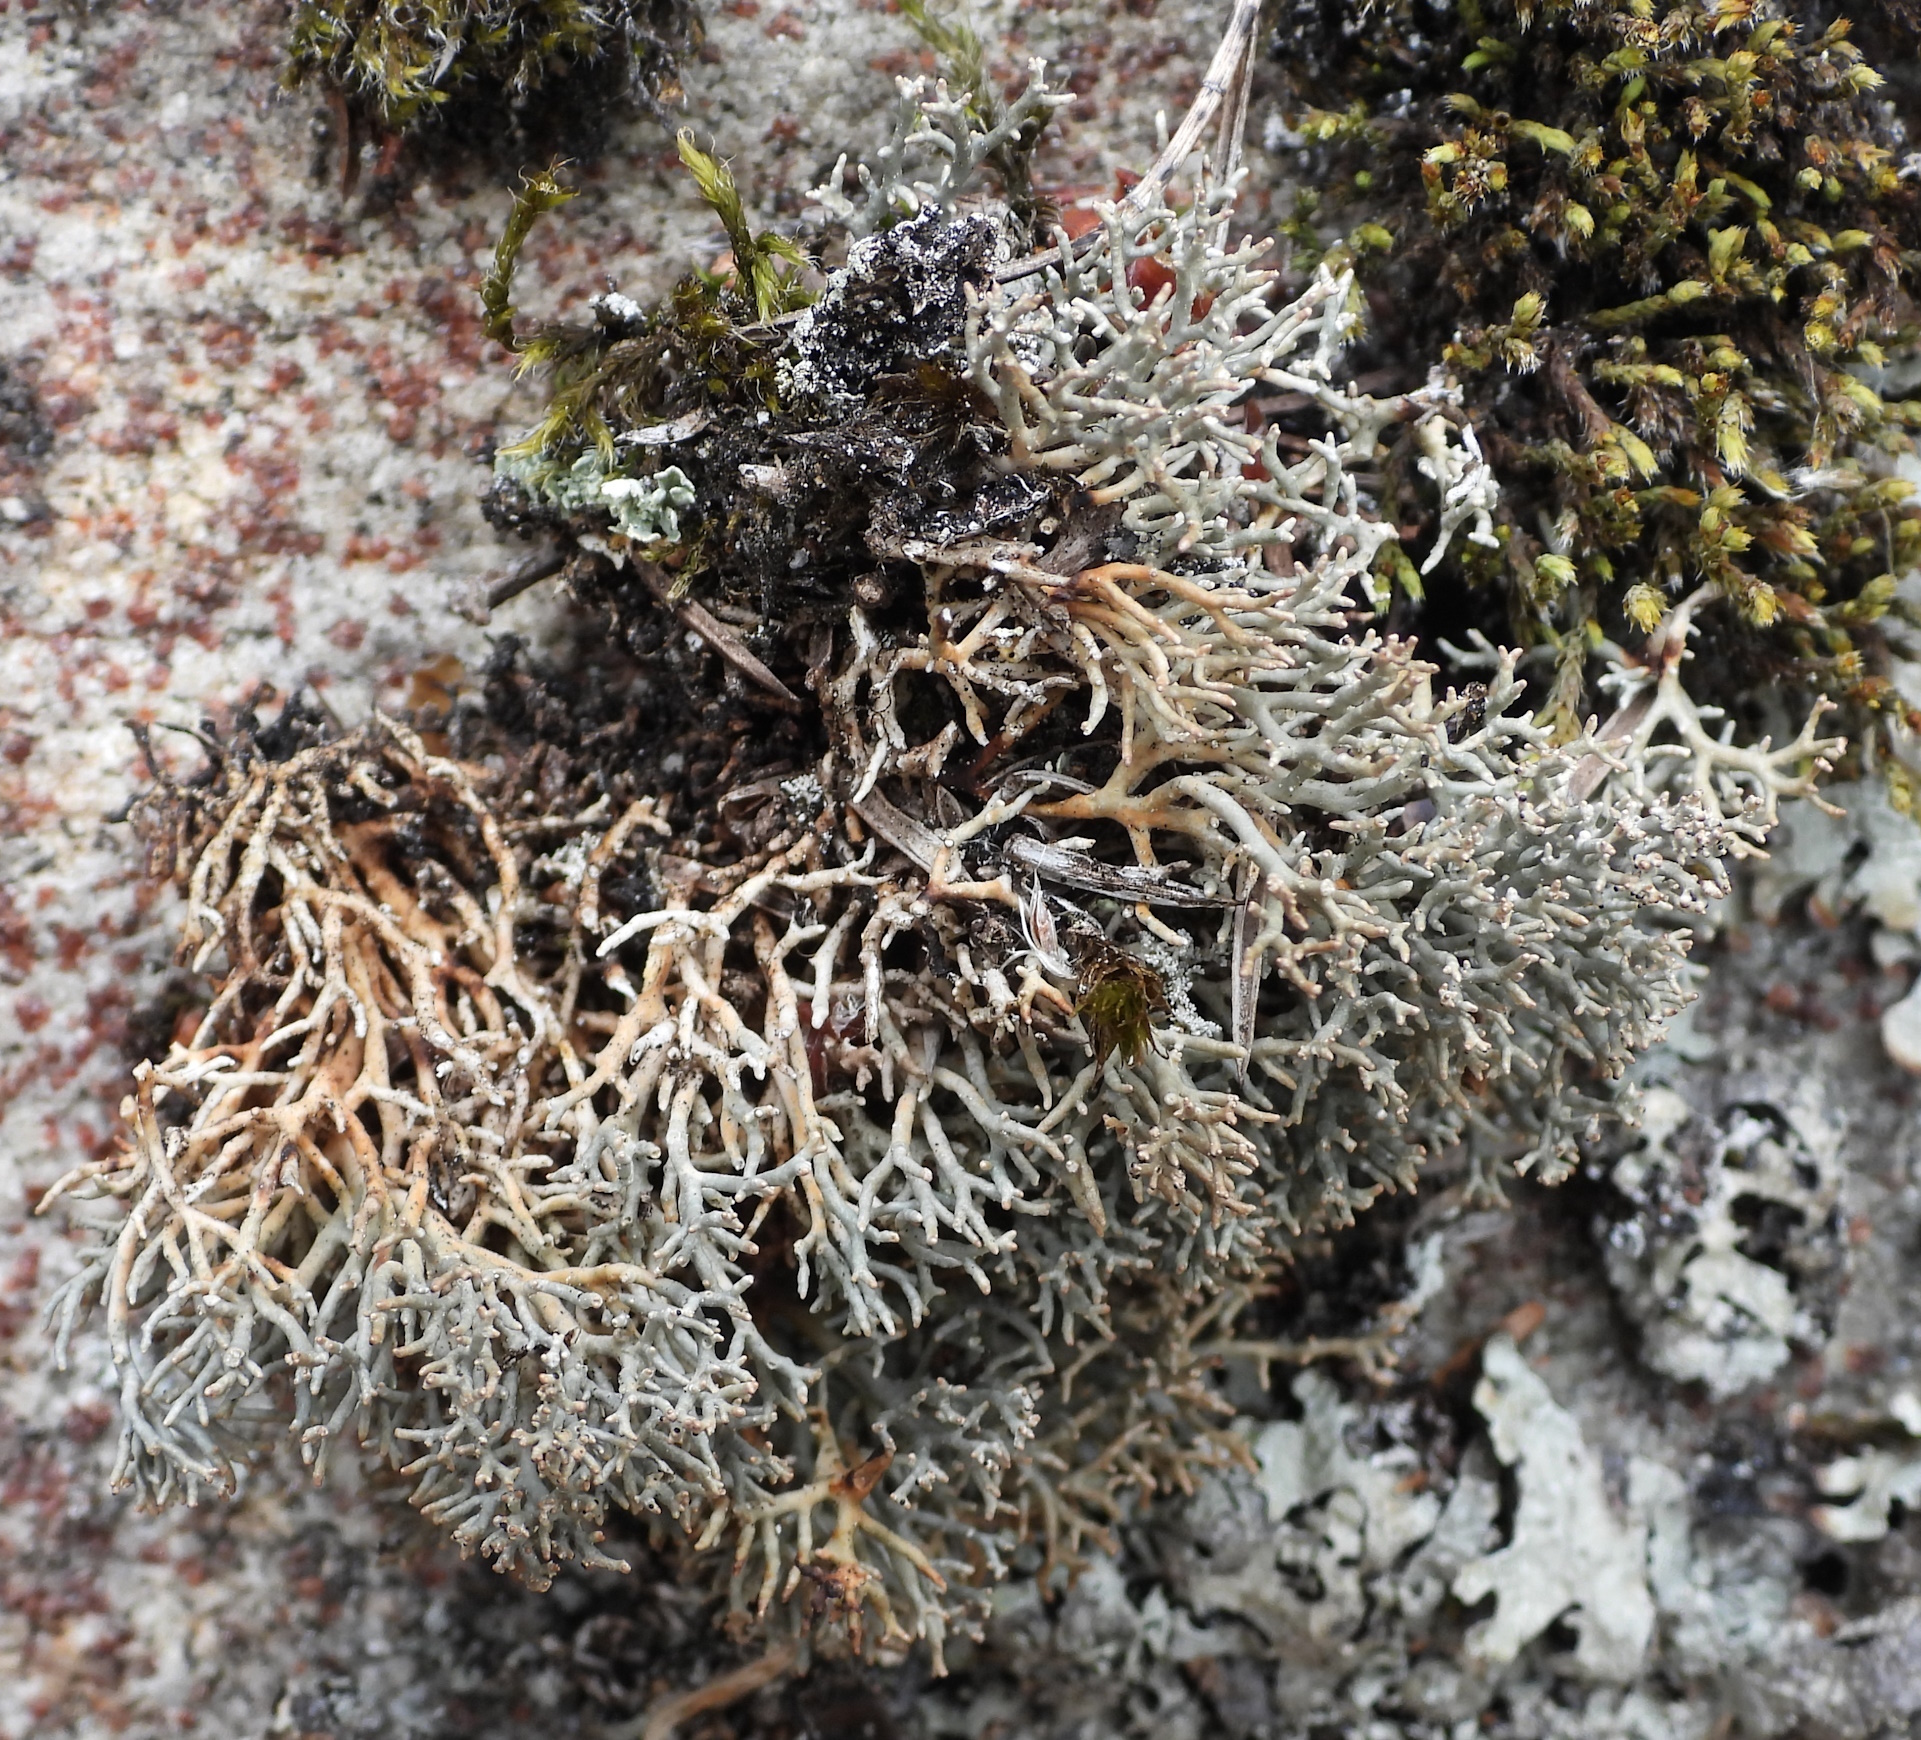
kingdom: Fungi
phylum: Ascomycota
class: Lecanoromycetes
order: Lecanorales
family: Sphaerophoraceae
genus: Sphaerophorus
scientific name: Sphaerophorus fragilis
